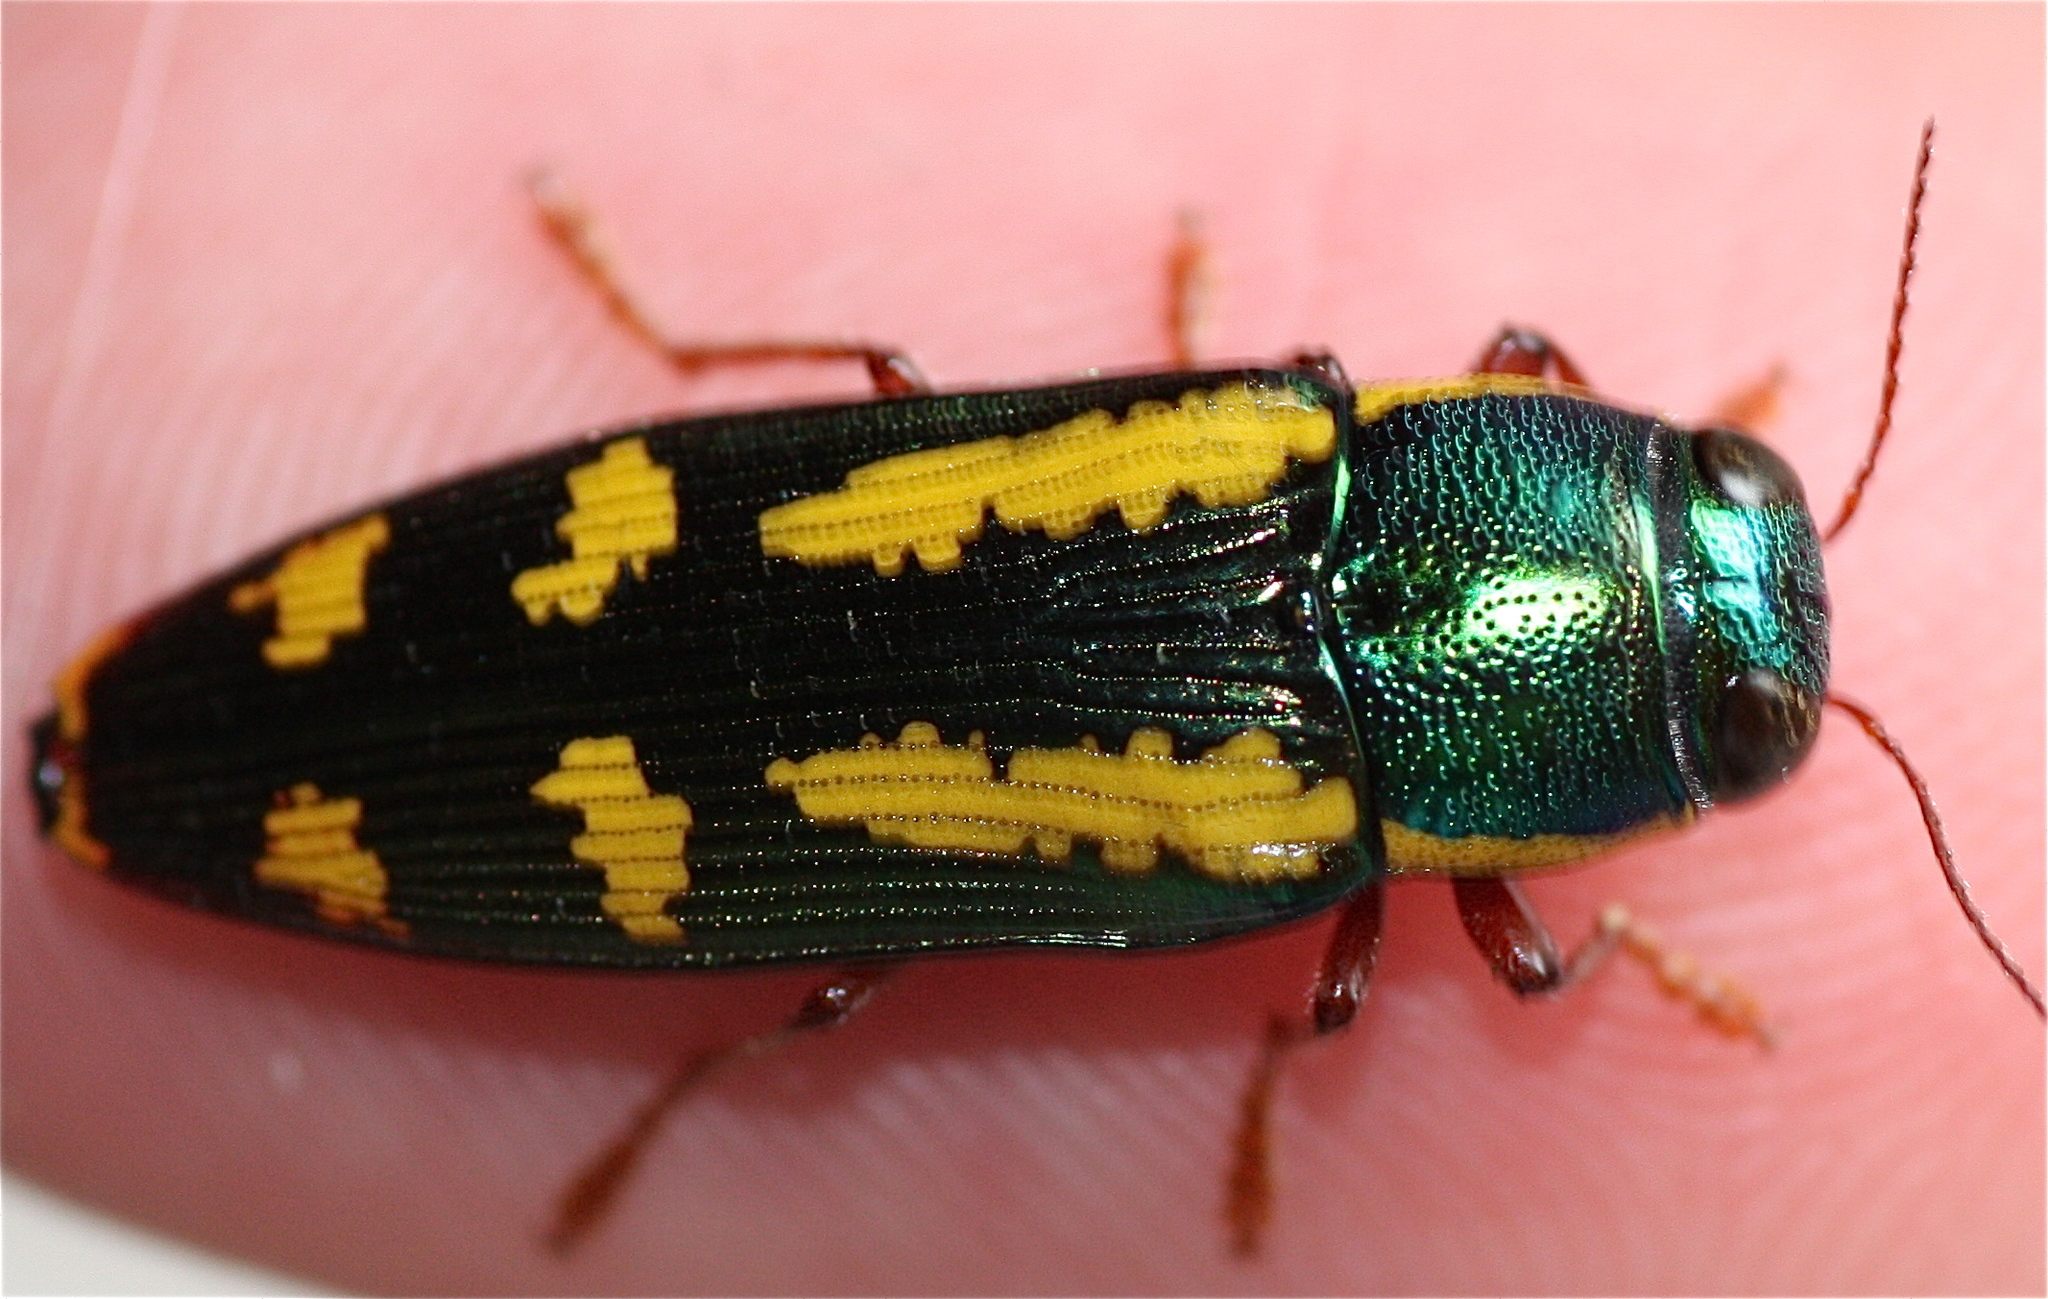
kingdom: Animalia
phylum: Arthropoda
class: Insecta
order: Coleoptera
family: Buprestidae
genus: Buprestis
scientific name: Buprestis rufipes
